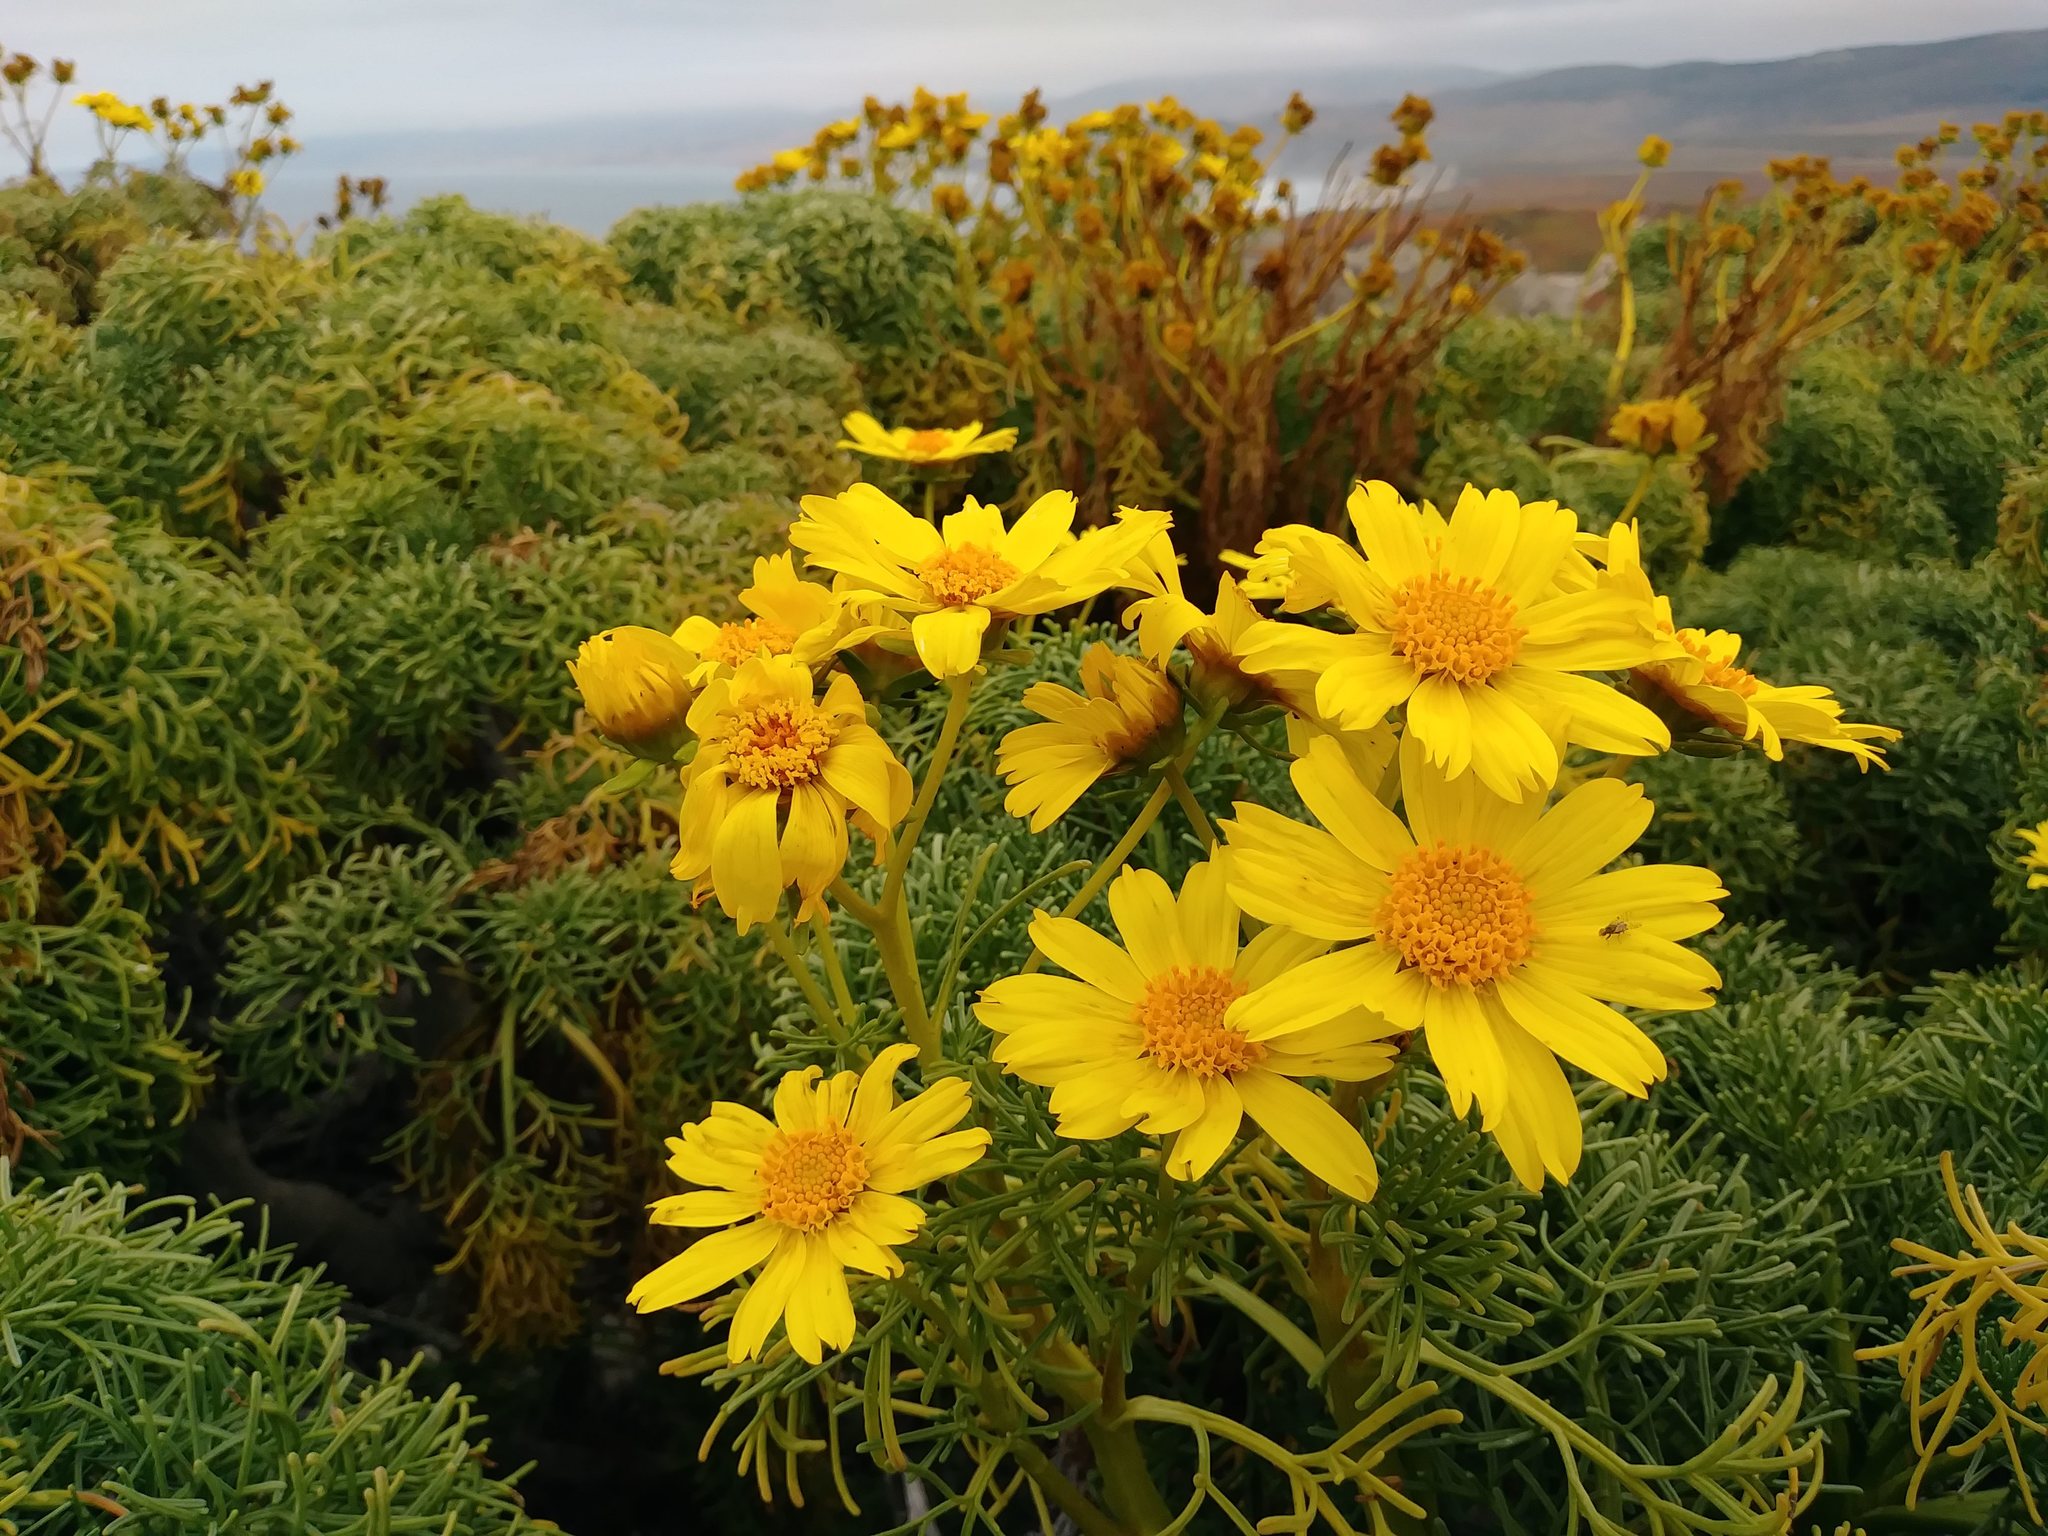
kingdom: Plantae
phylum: Tracheophyta
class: Magnoliopsida
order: Asterales
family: Asteraceae
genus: Coreopsis
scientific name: Coreopsis gigantea
